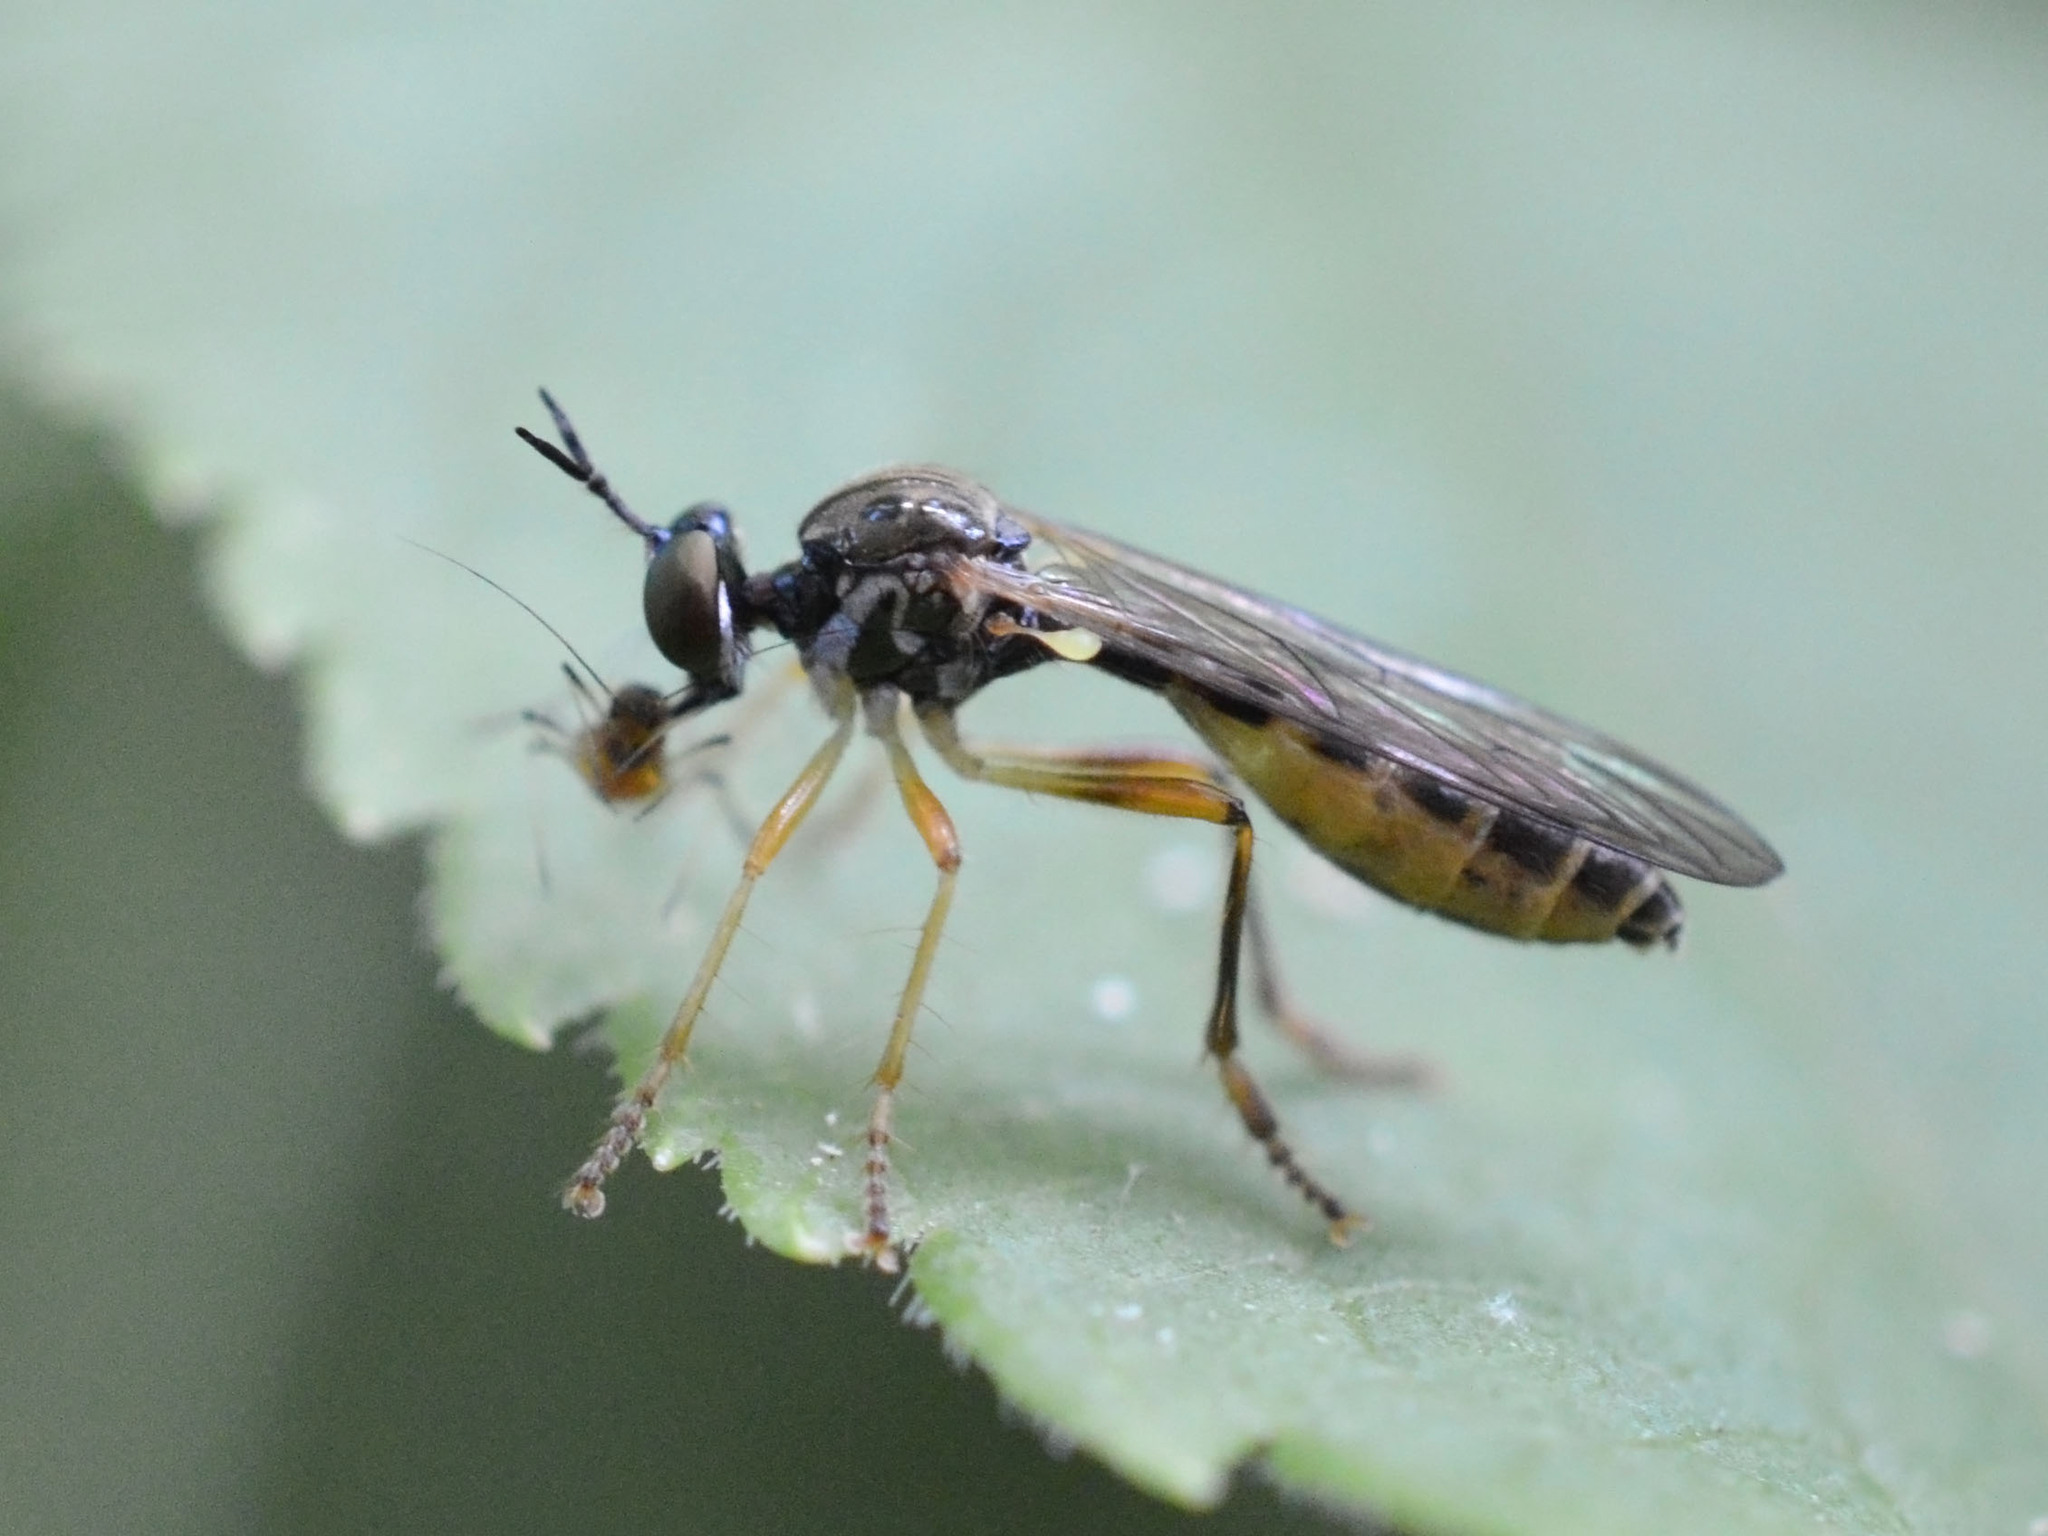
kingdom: Animalia
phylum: Arthropoda
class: Insecta
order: Diptera
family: Asilidae
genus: Dioctria
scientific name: Dioctria linearis
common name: Small yellow-legged robberfly
